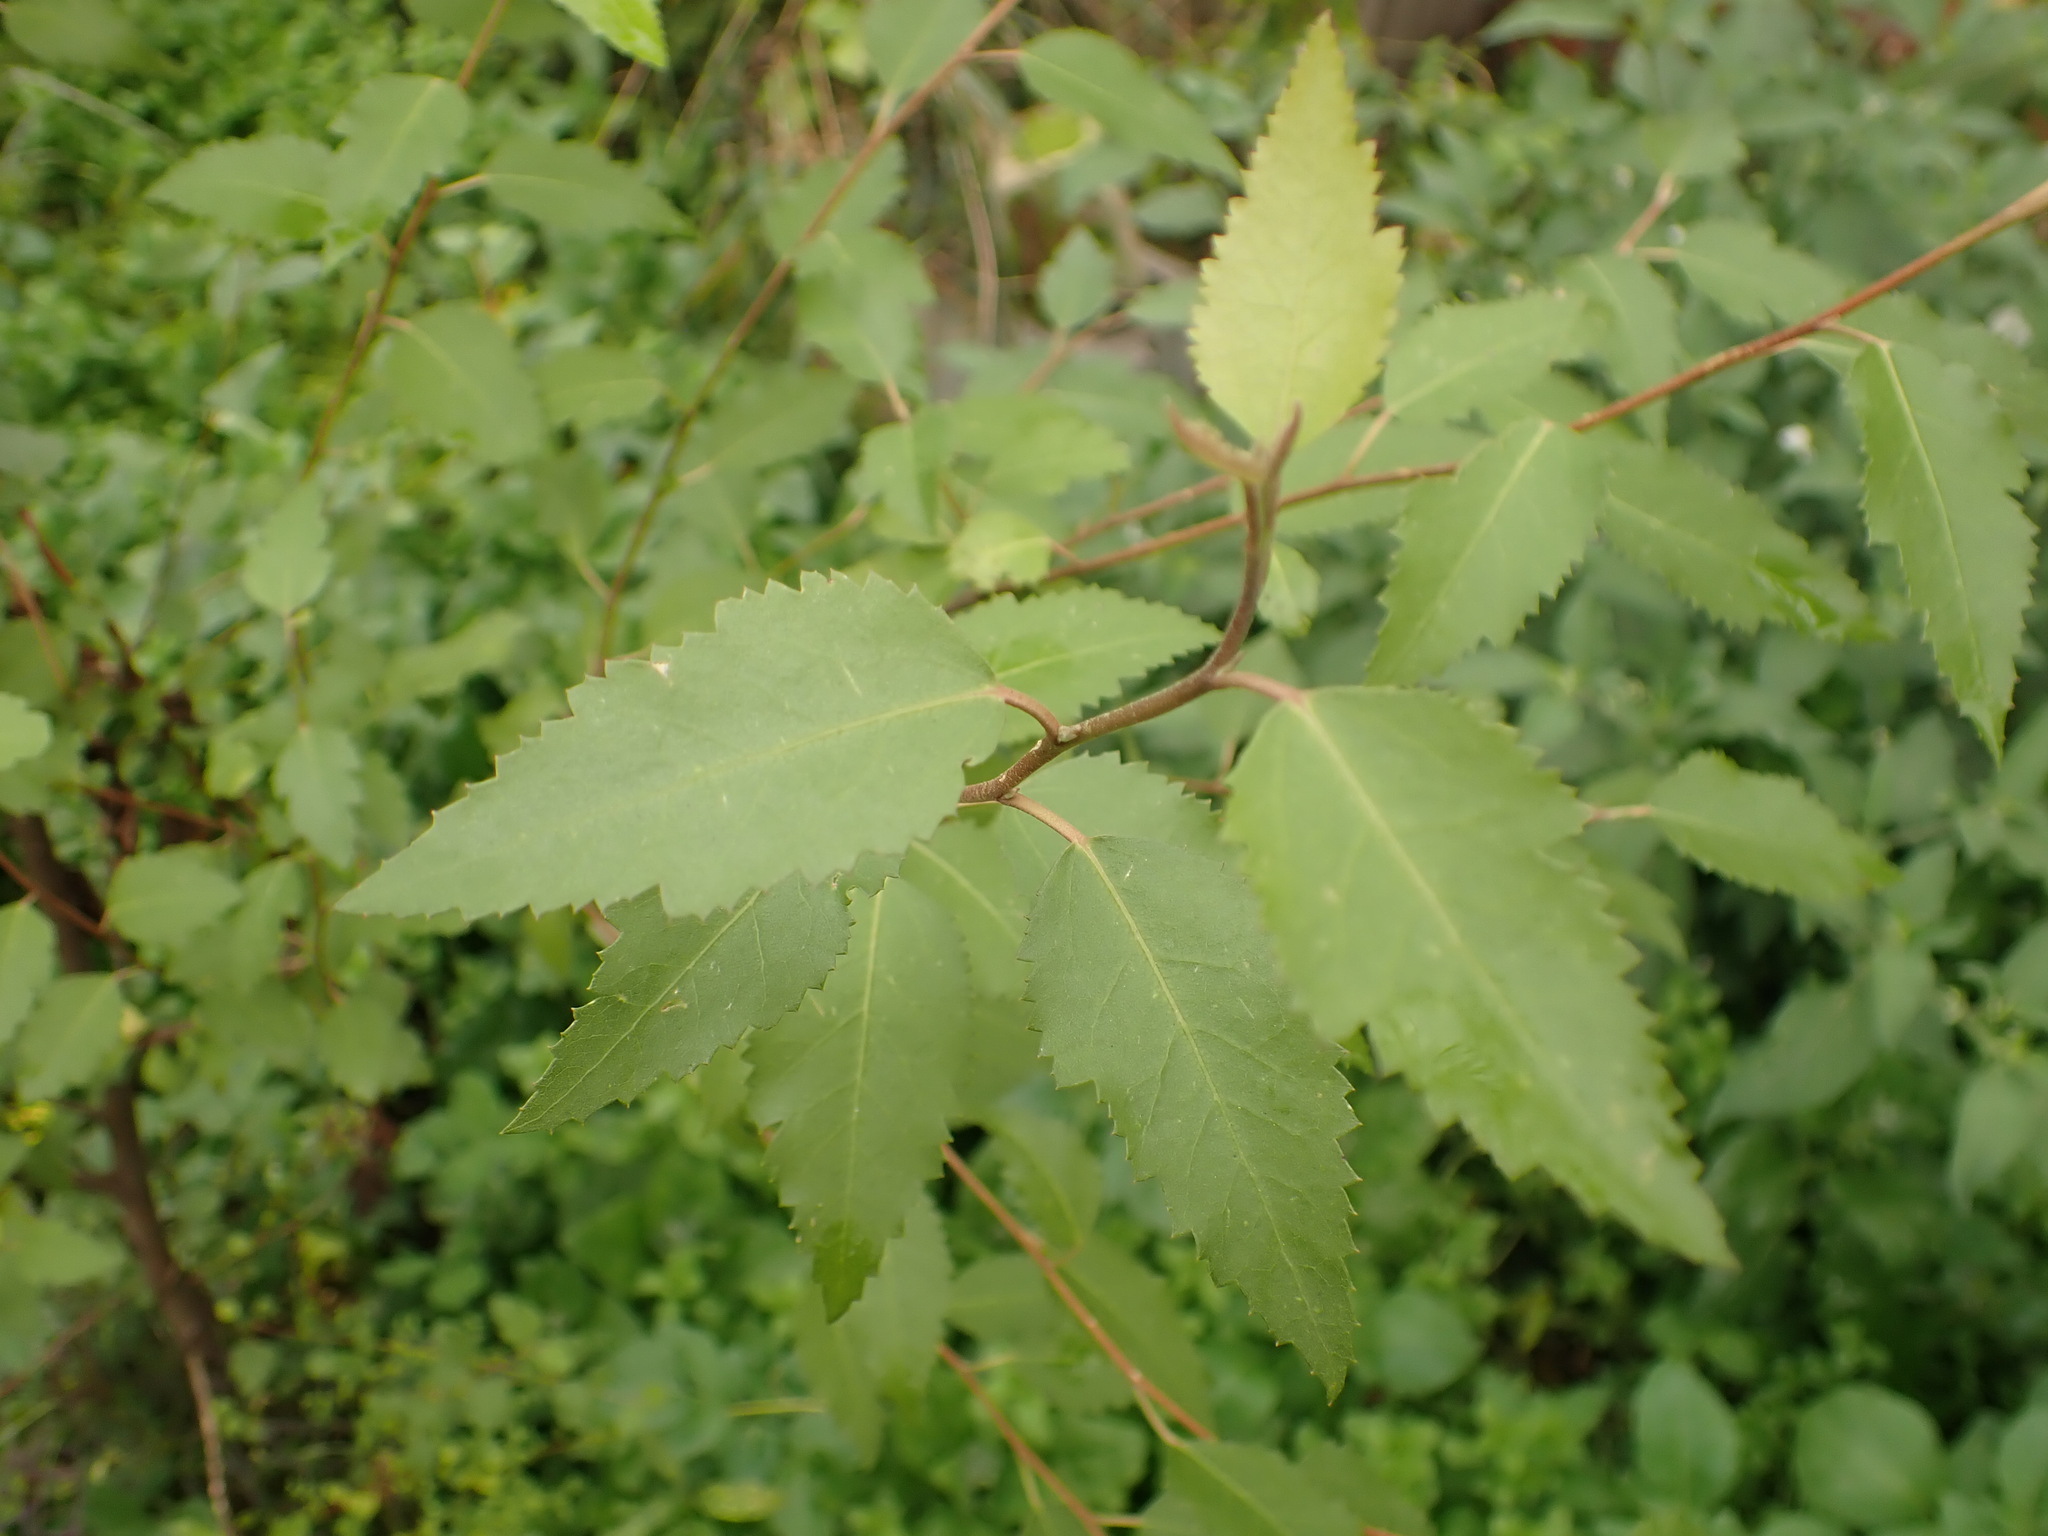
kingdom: Plantae
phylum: Tracheophyta
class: Magnoliopsida
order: Malvales
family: Malvaceae
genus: Plagianthus
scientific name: Plagianthus regius
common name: Manatu
